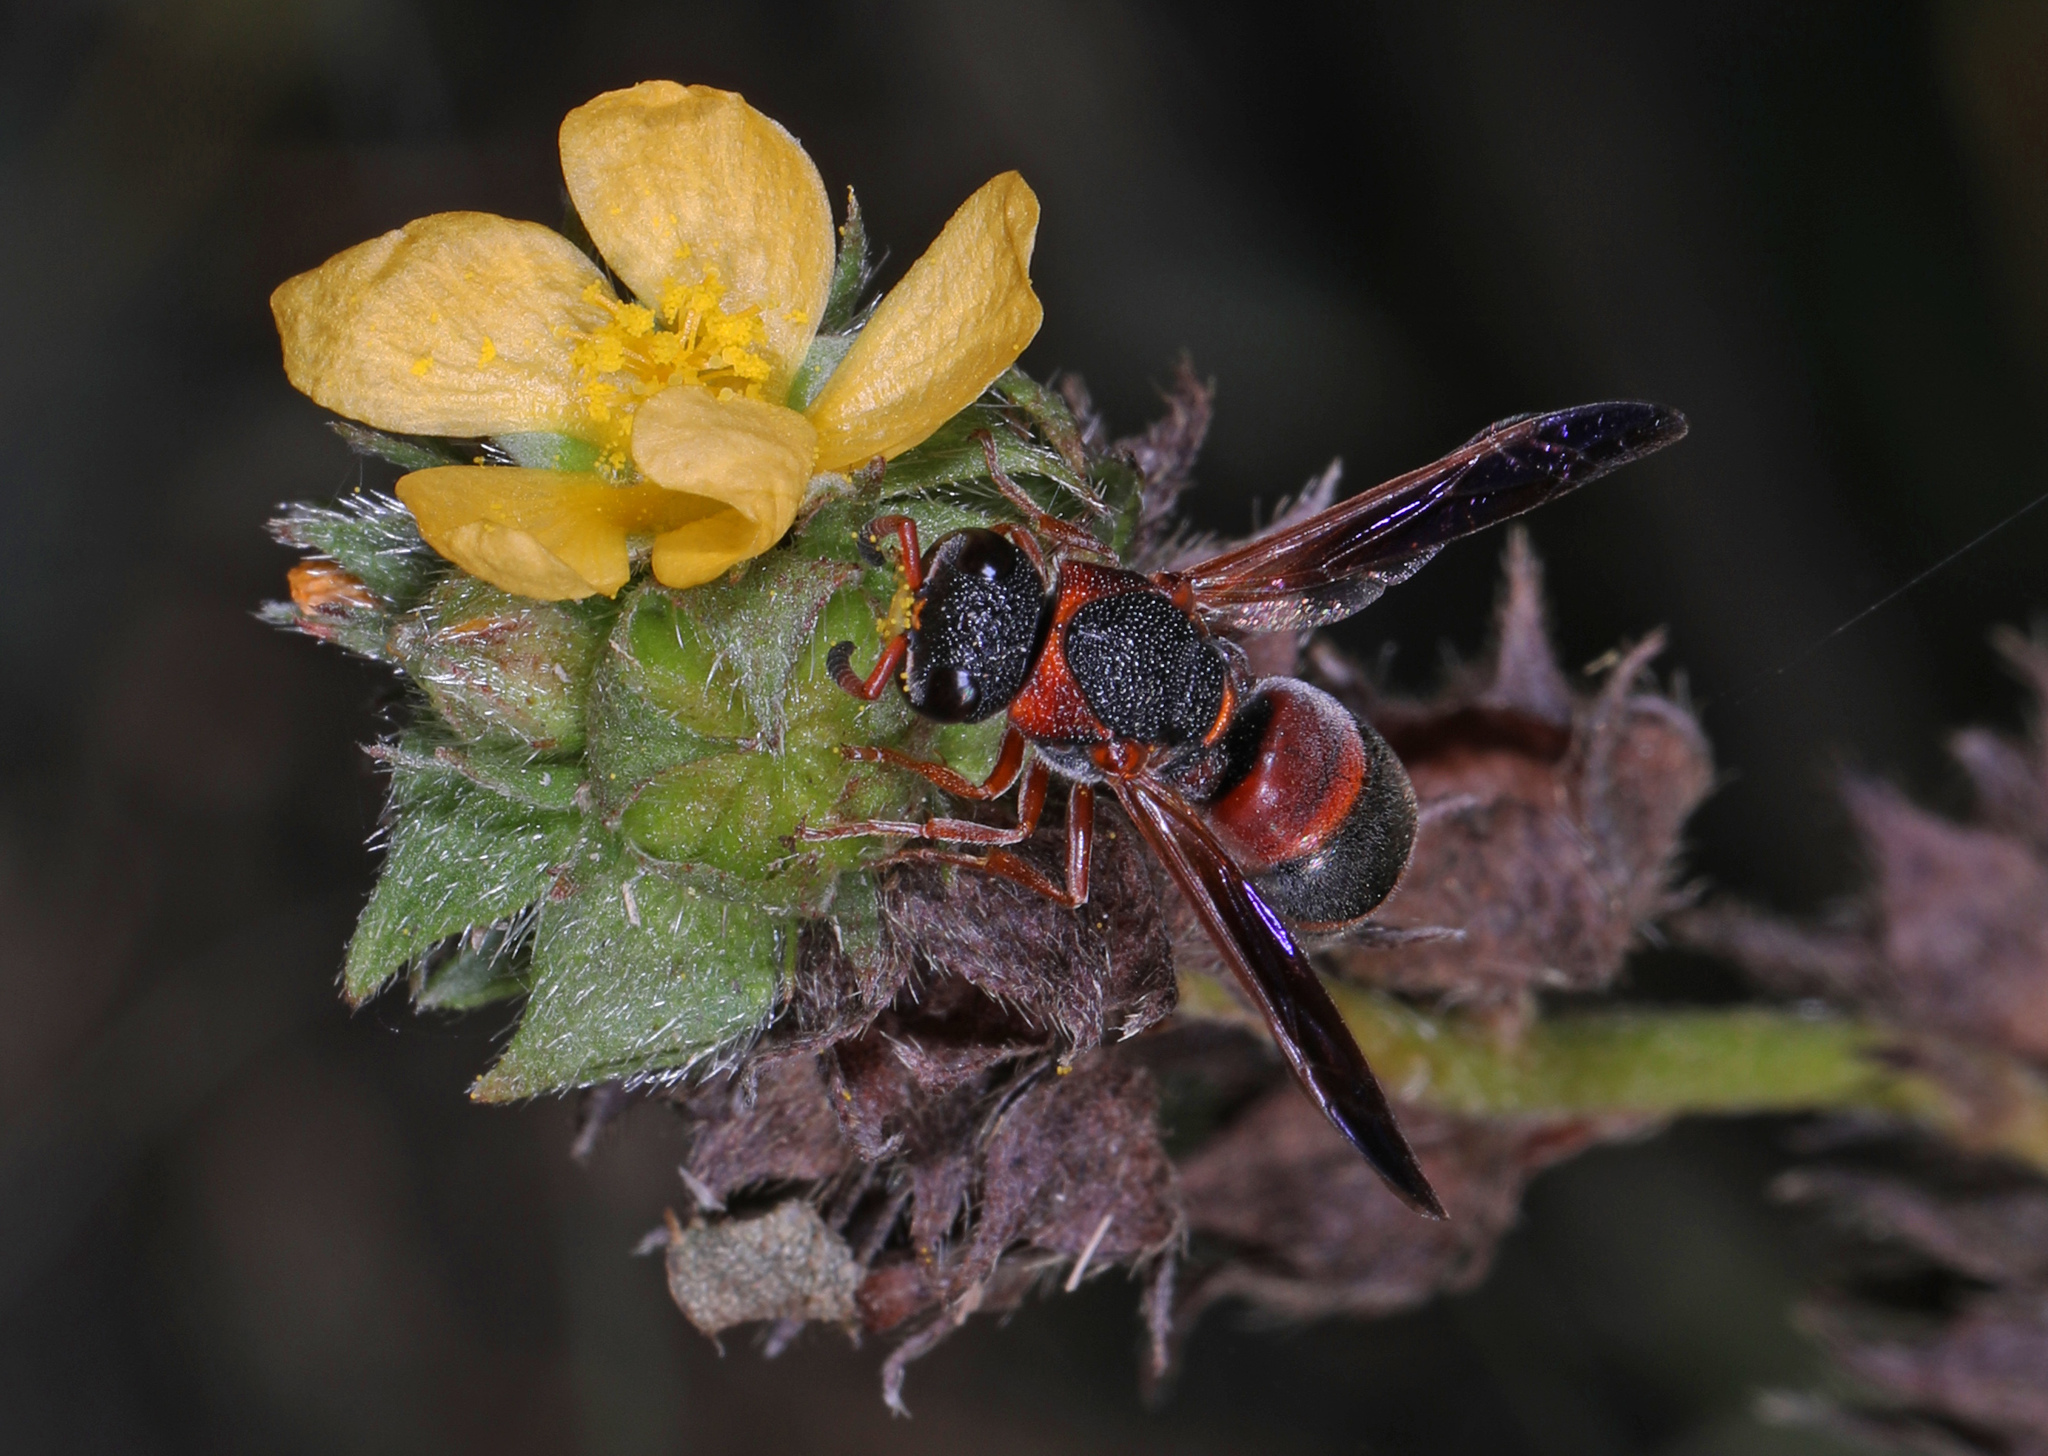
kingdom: Animalia
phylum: Arthropoda
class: Insecta
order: Hymenoptera
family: Eumenidae
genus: Pachodynerus
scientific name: Pachodynerus erynnis
